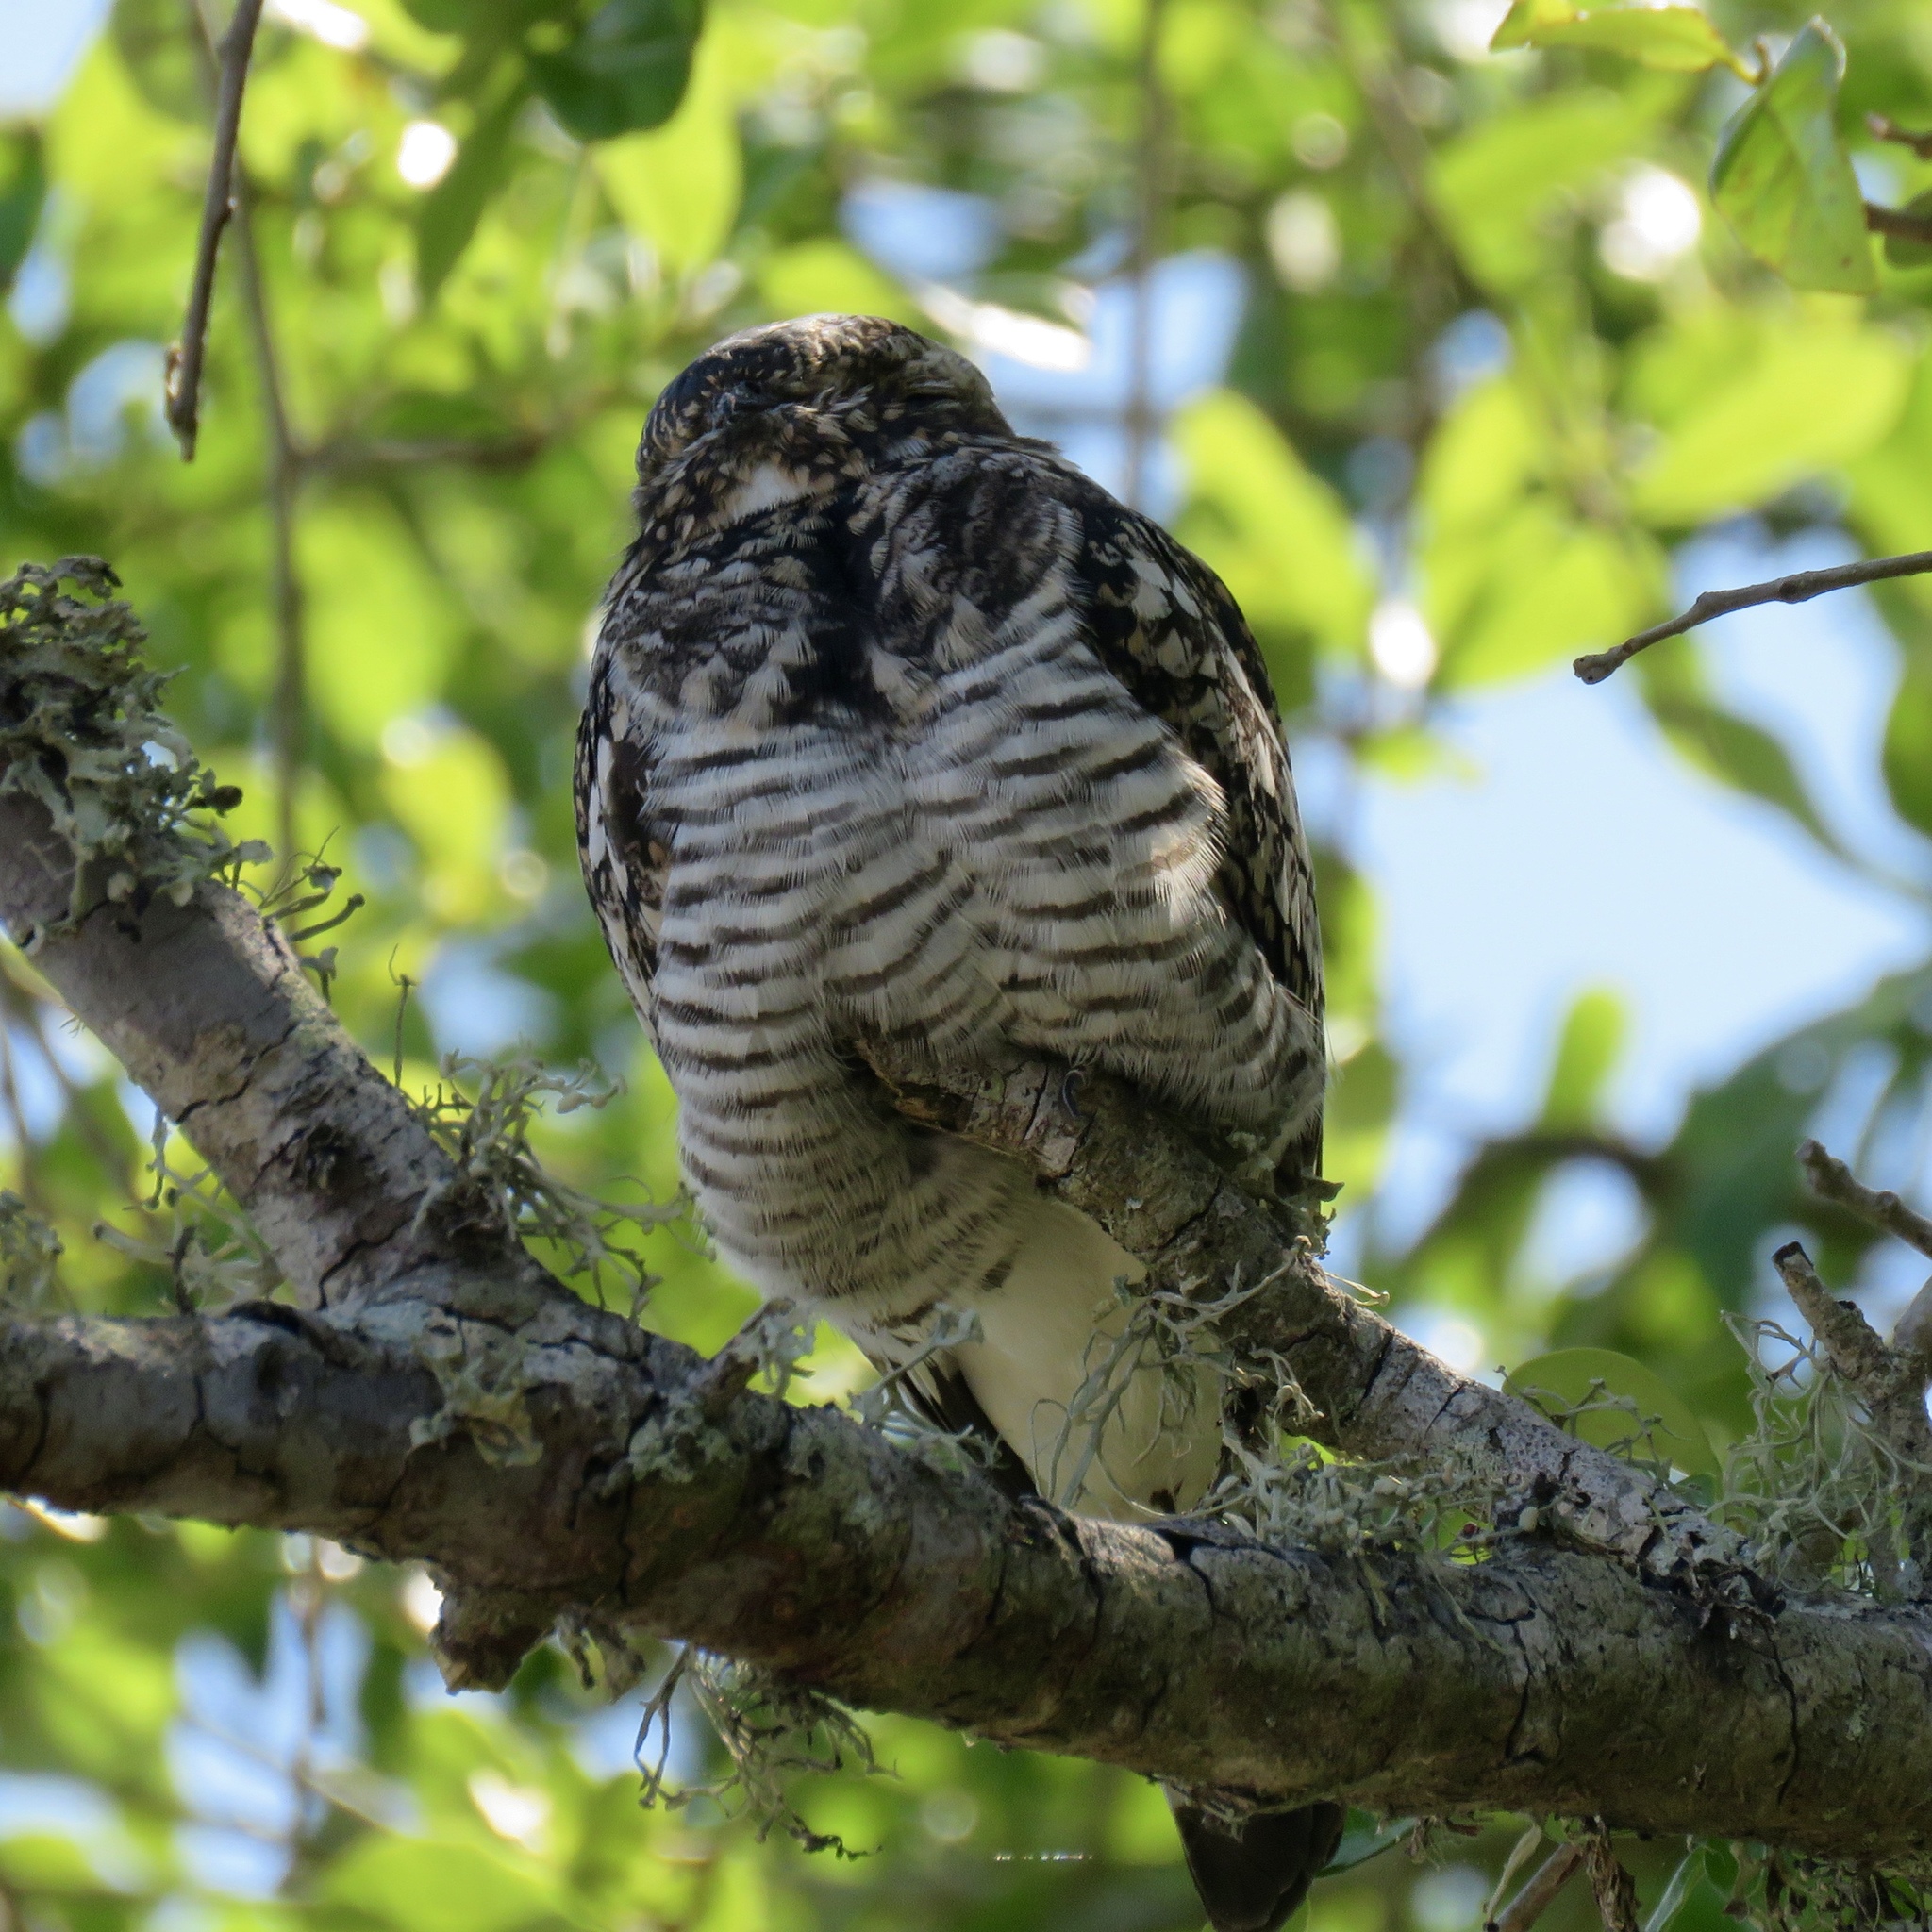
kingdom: Animalia
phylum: Chordata
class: Aves
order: Caprimulgiformes
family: Caprimulgidae
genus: Chordeiles
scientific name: Chordeiles minor
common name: Common nighthawk
